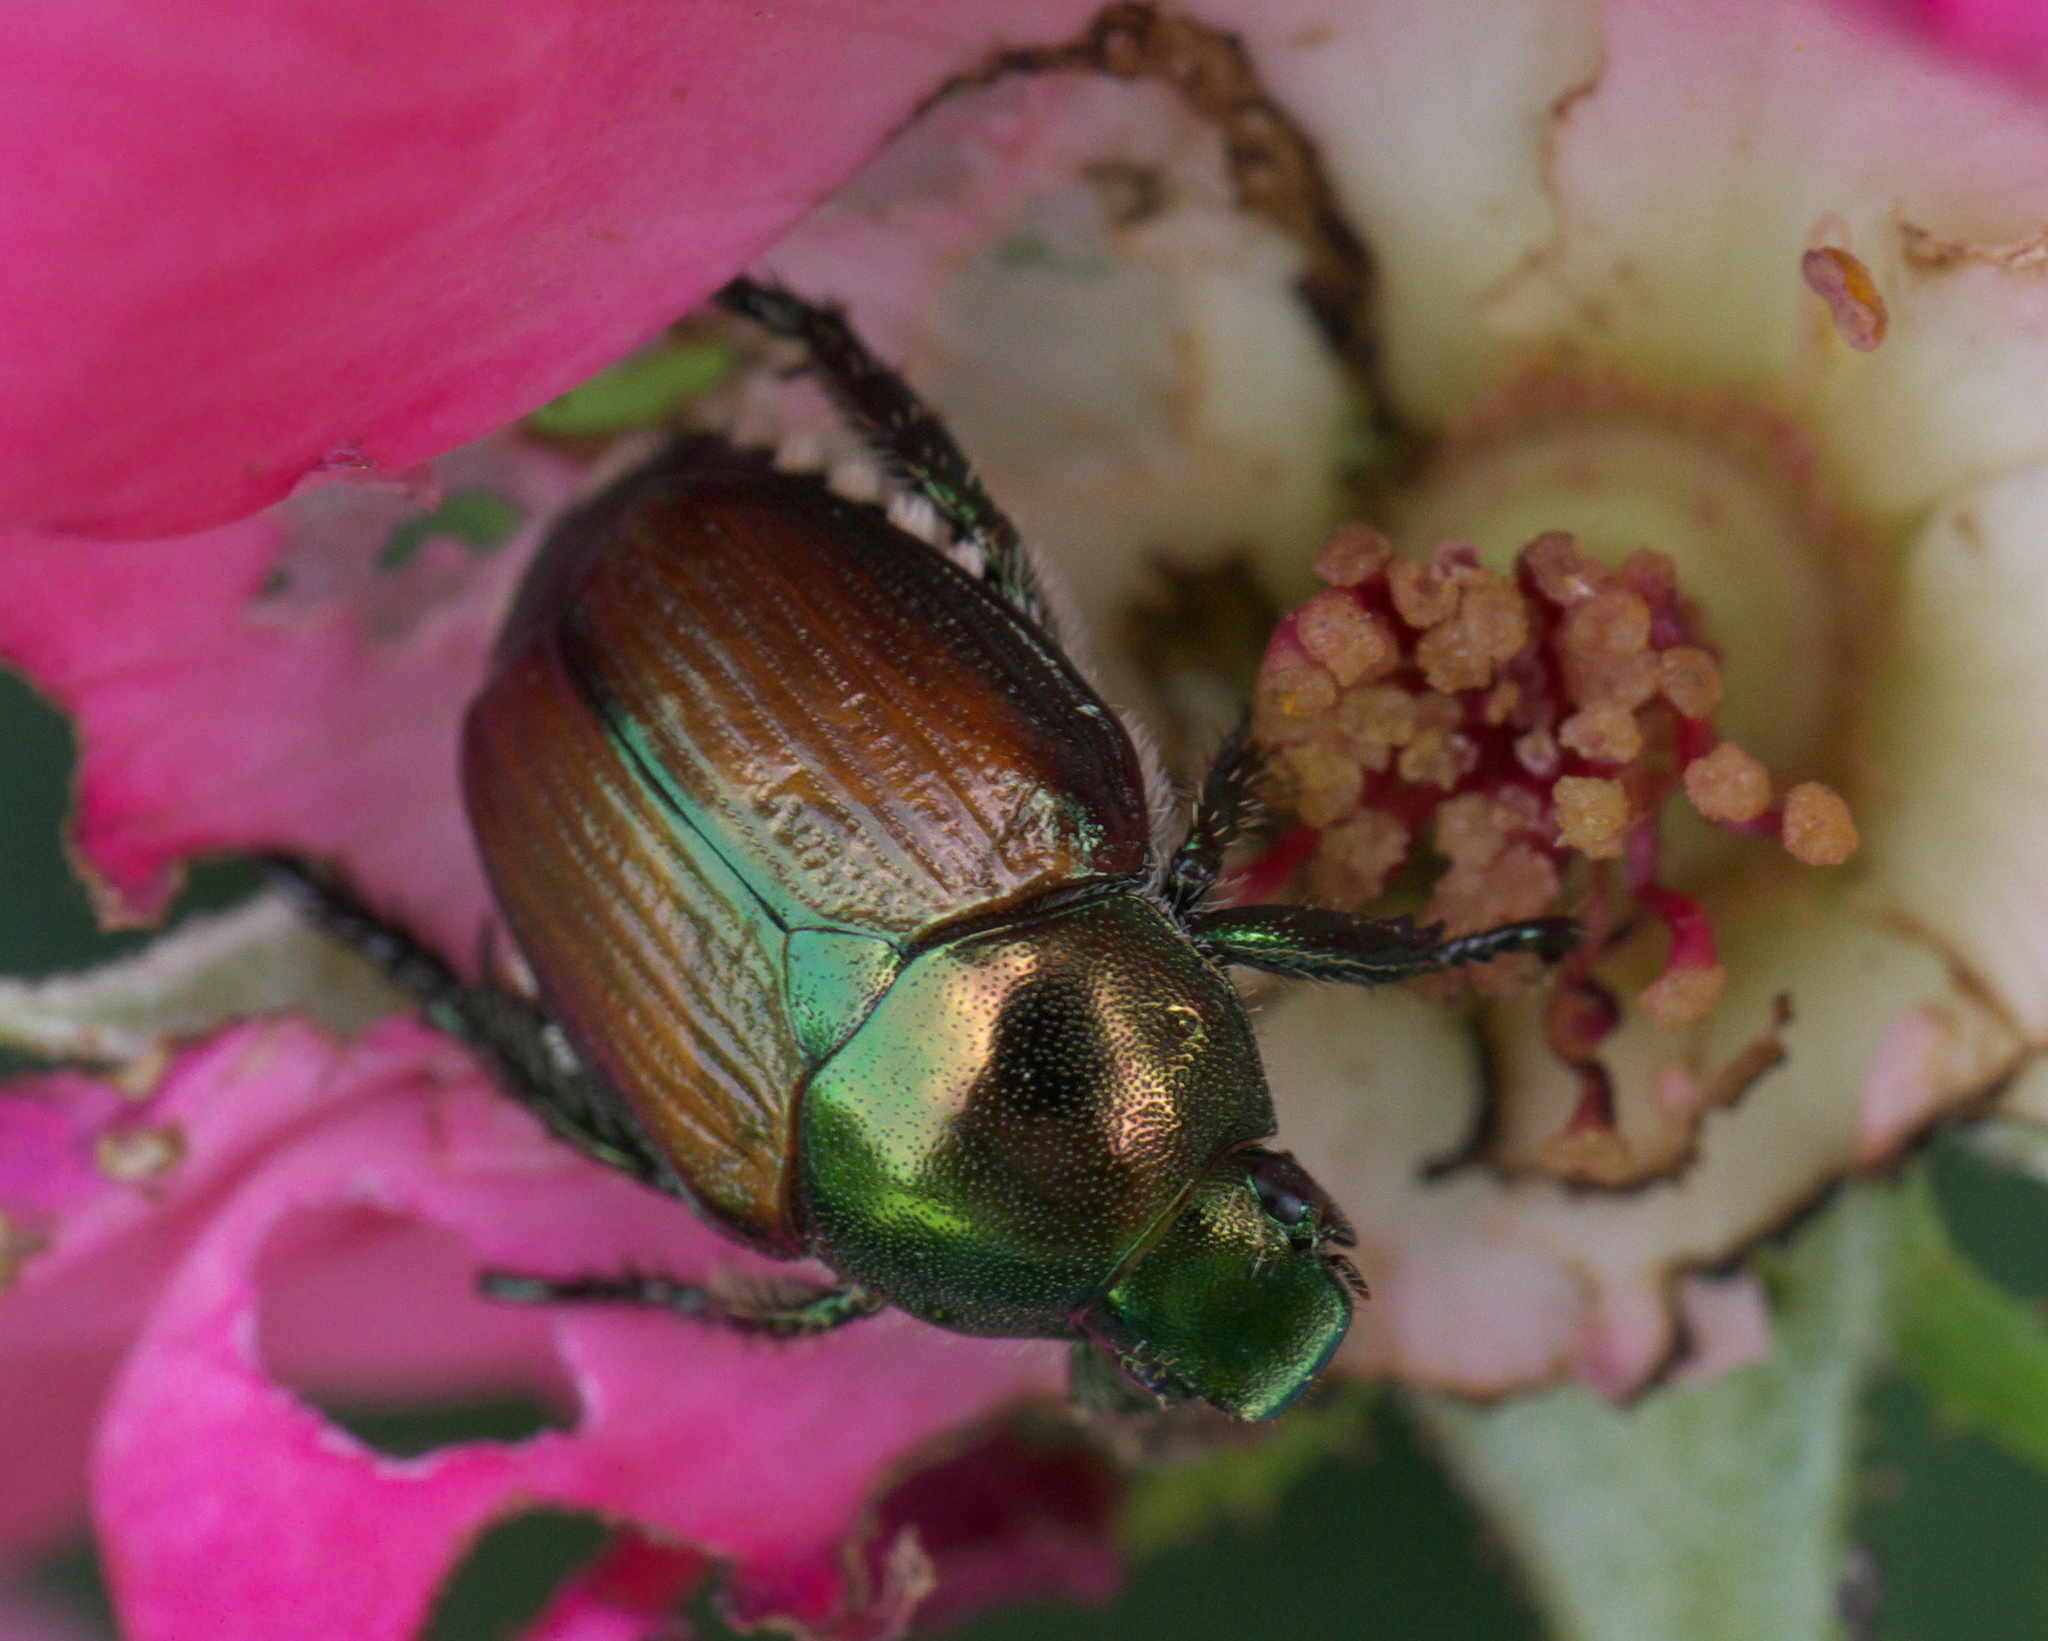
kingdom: Animalia
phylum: Arthropoda
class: Insecta
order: Coleoptera
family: Scarabaeidae
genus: Popillia
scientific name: Popillia japonica
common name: Japanese beetle
